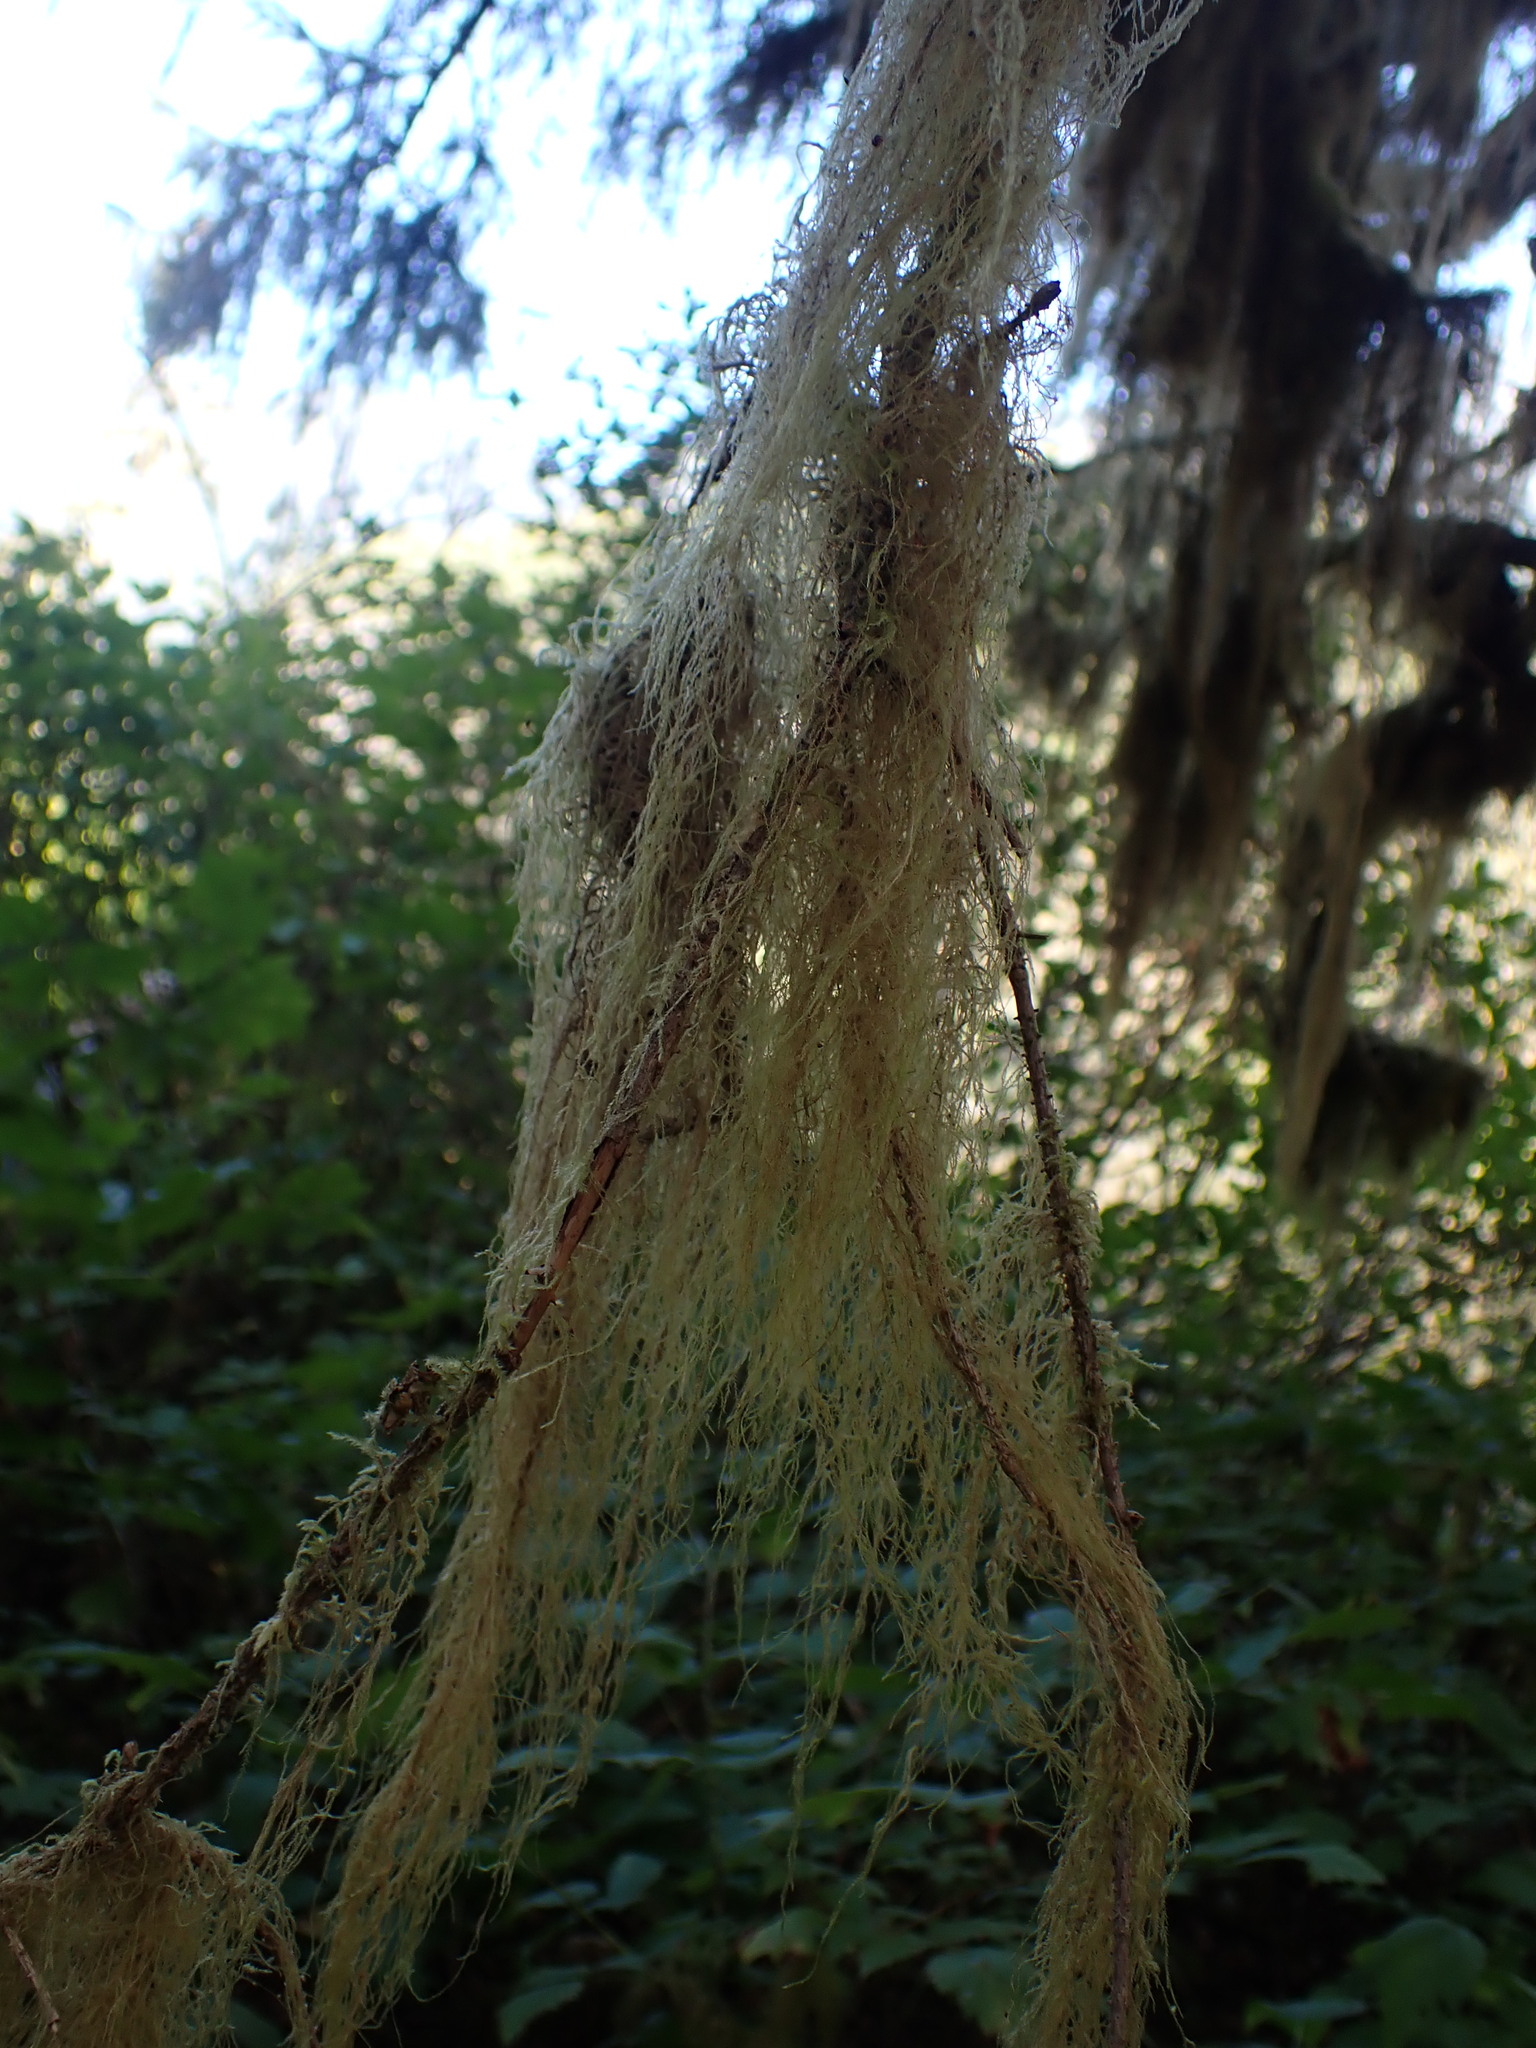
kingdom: Plantae
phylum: Bryophyta
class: Bryopsida
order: Hypnales
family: Lembophyllaceae
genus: Pseudisothecium
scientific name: Pseudisothecium stoloniferum
